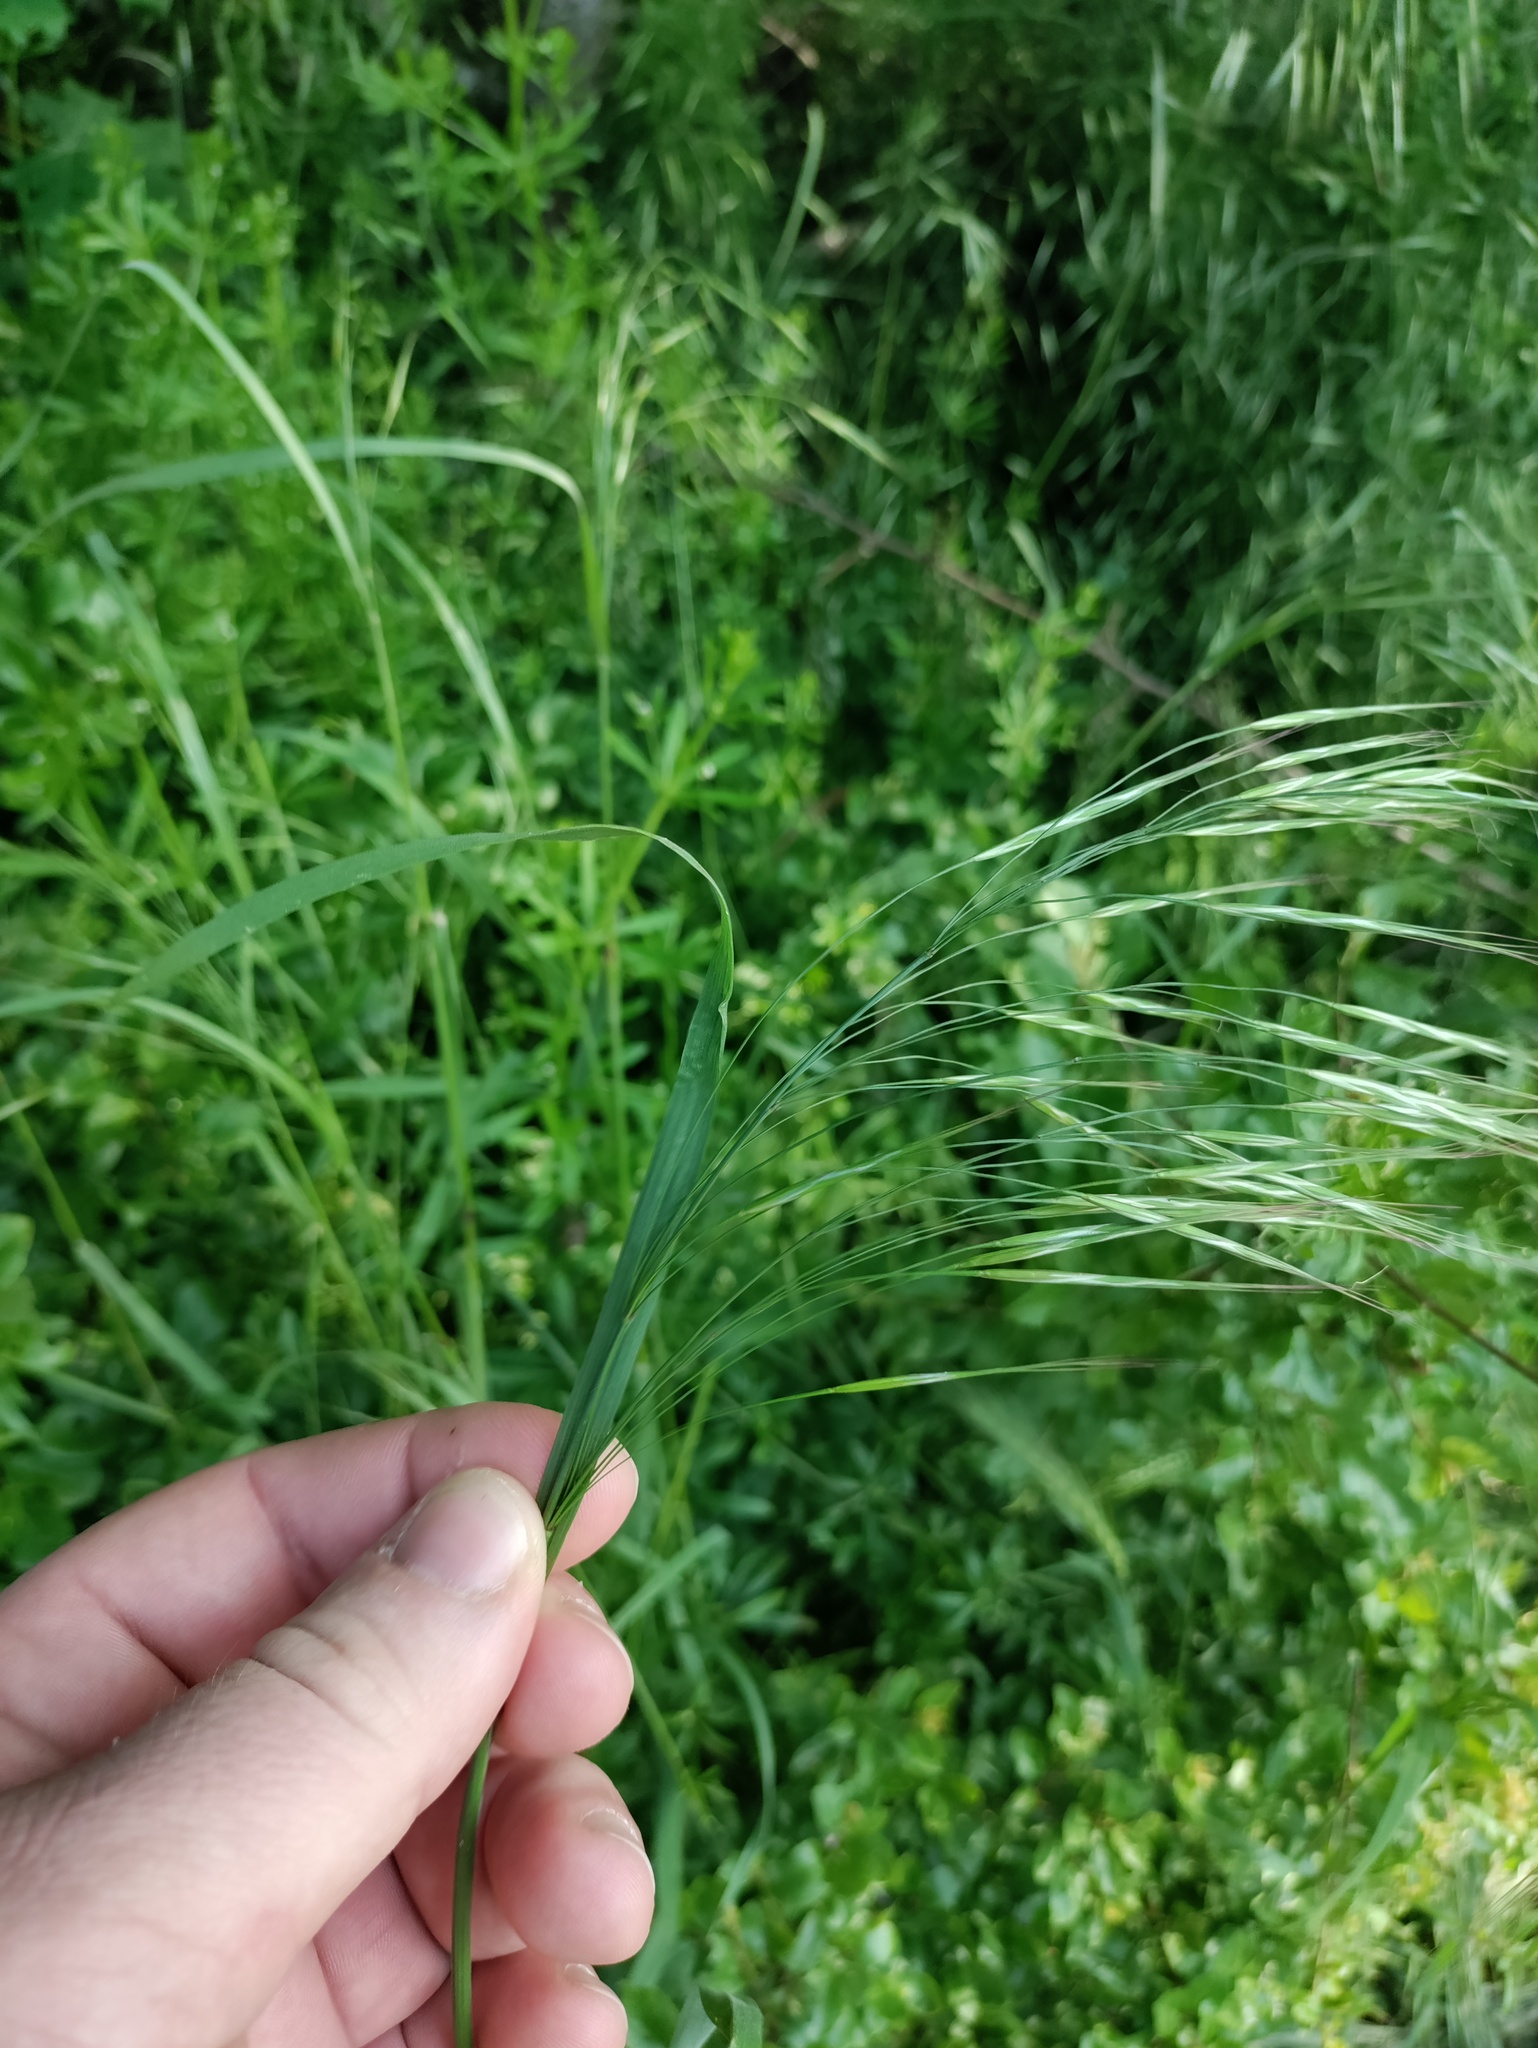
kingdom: Plantae
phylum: Tracheophyta
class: Liliopsida
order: Poales
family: Poaceae
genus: Bromus
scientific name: Bromus sterilis
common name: Poverty brome
